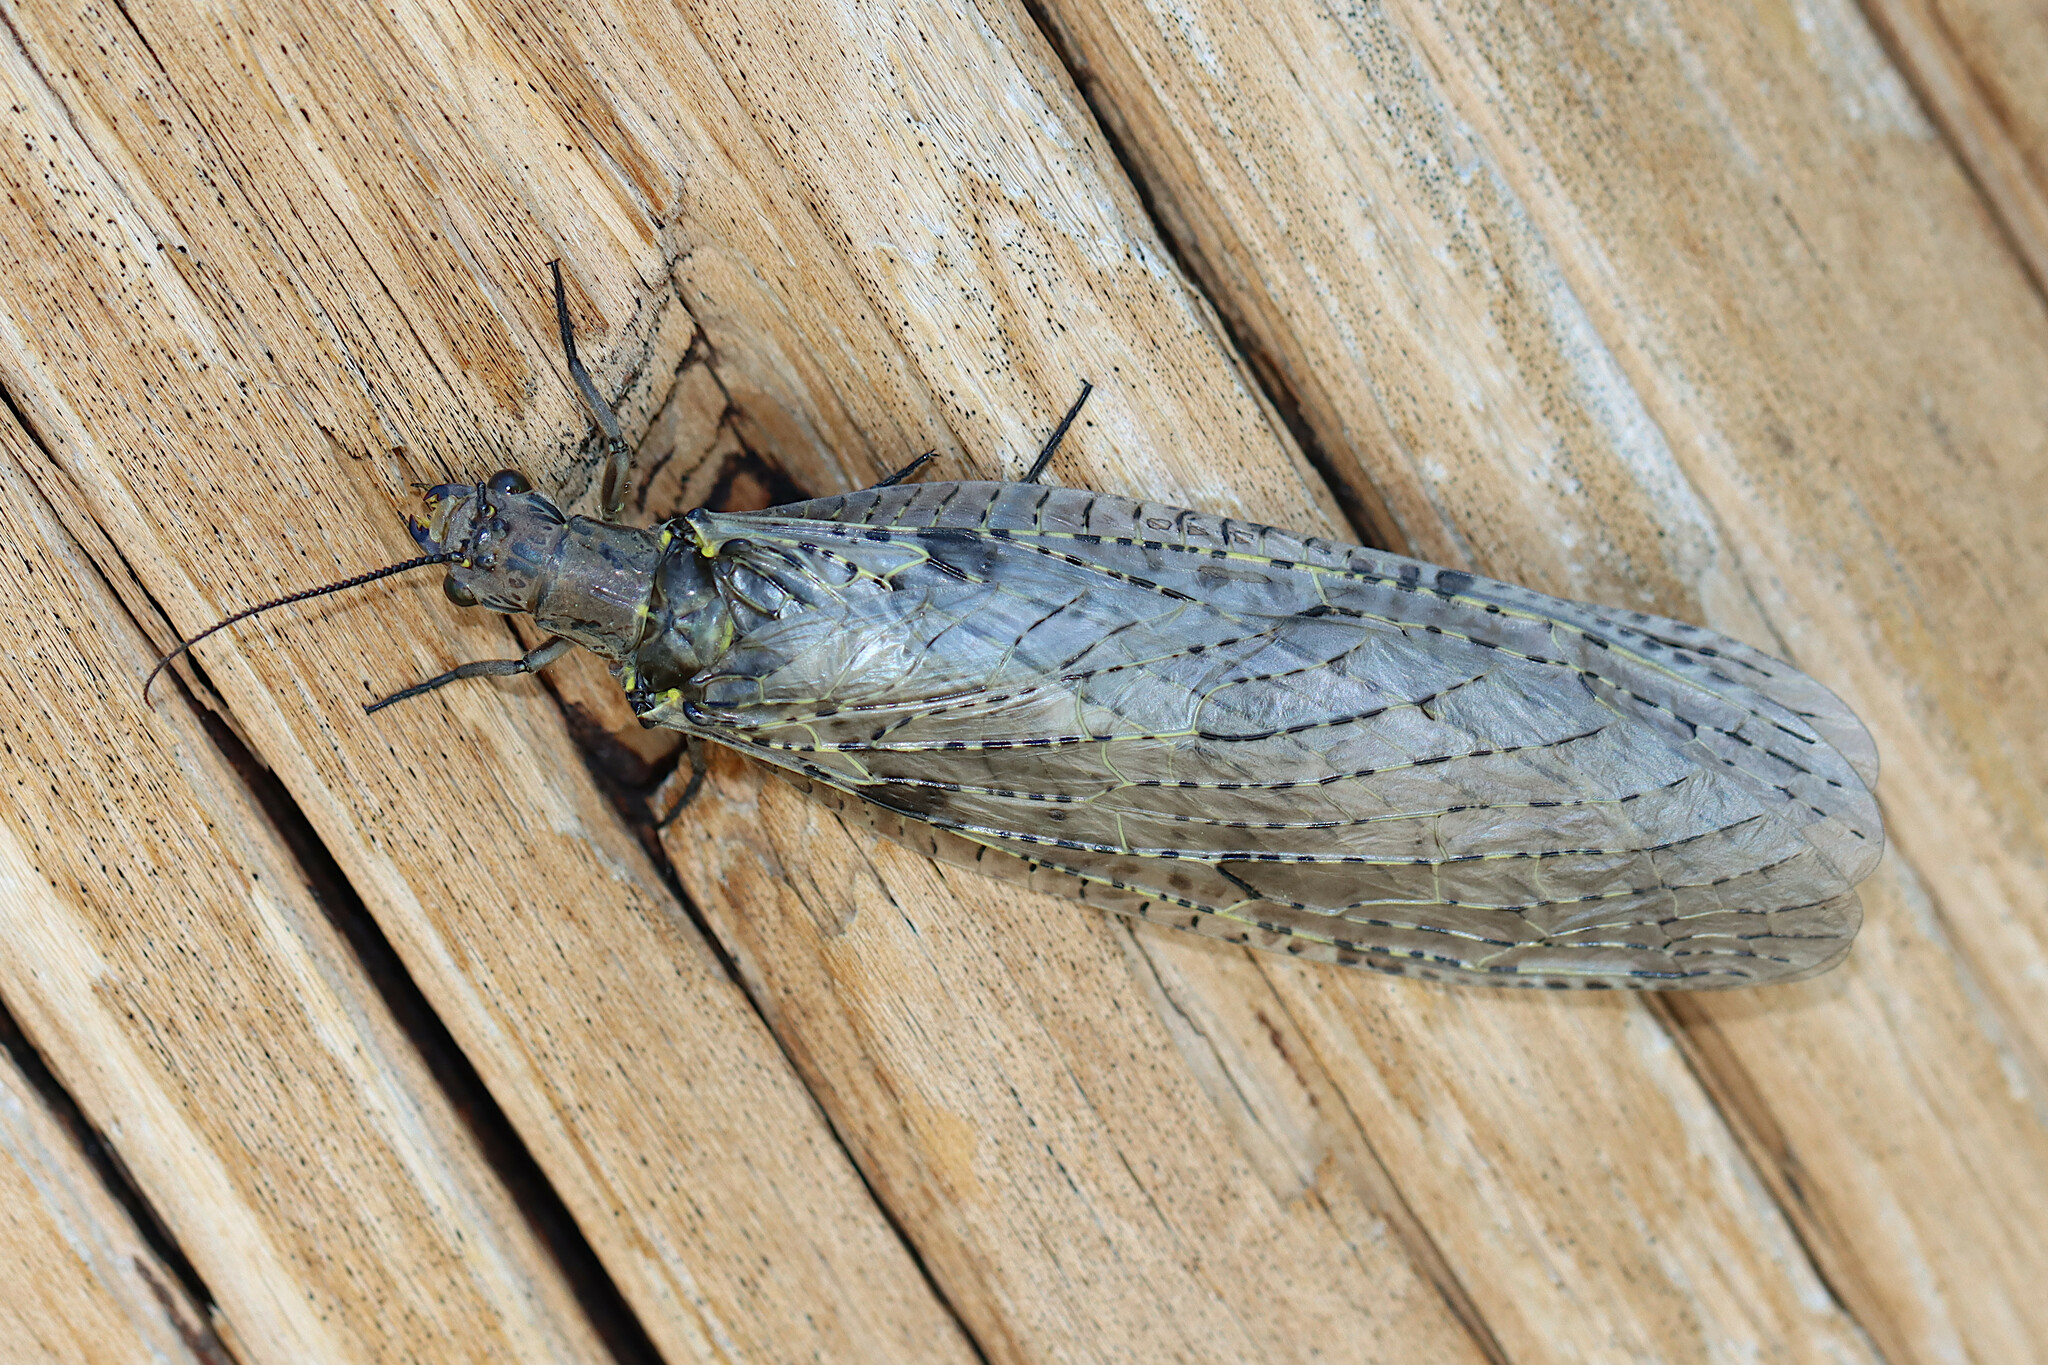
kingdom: Animalia
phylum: Arthropoda
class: Insecta
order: Megaloptera
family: Corydalidae
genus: Chauliodes
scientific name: Chauliodes rastricornis
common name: Spring fishfly
